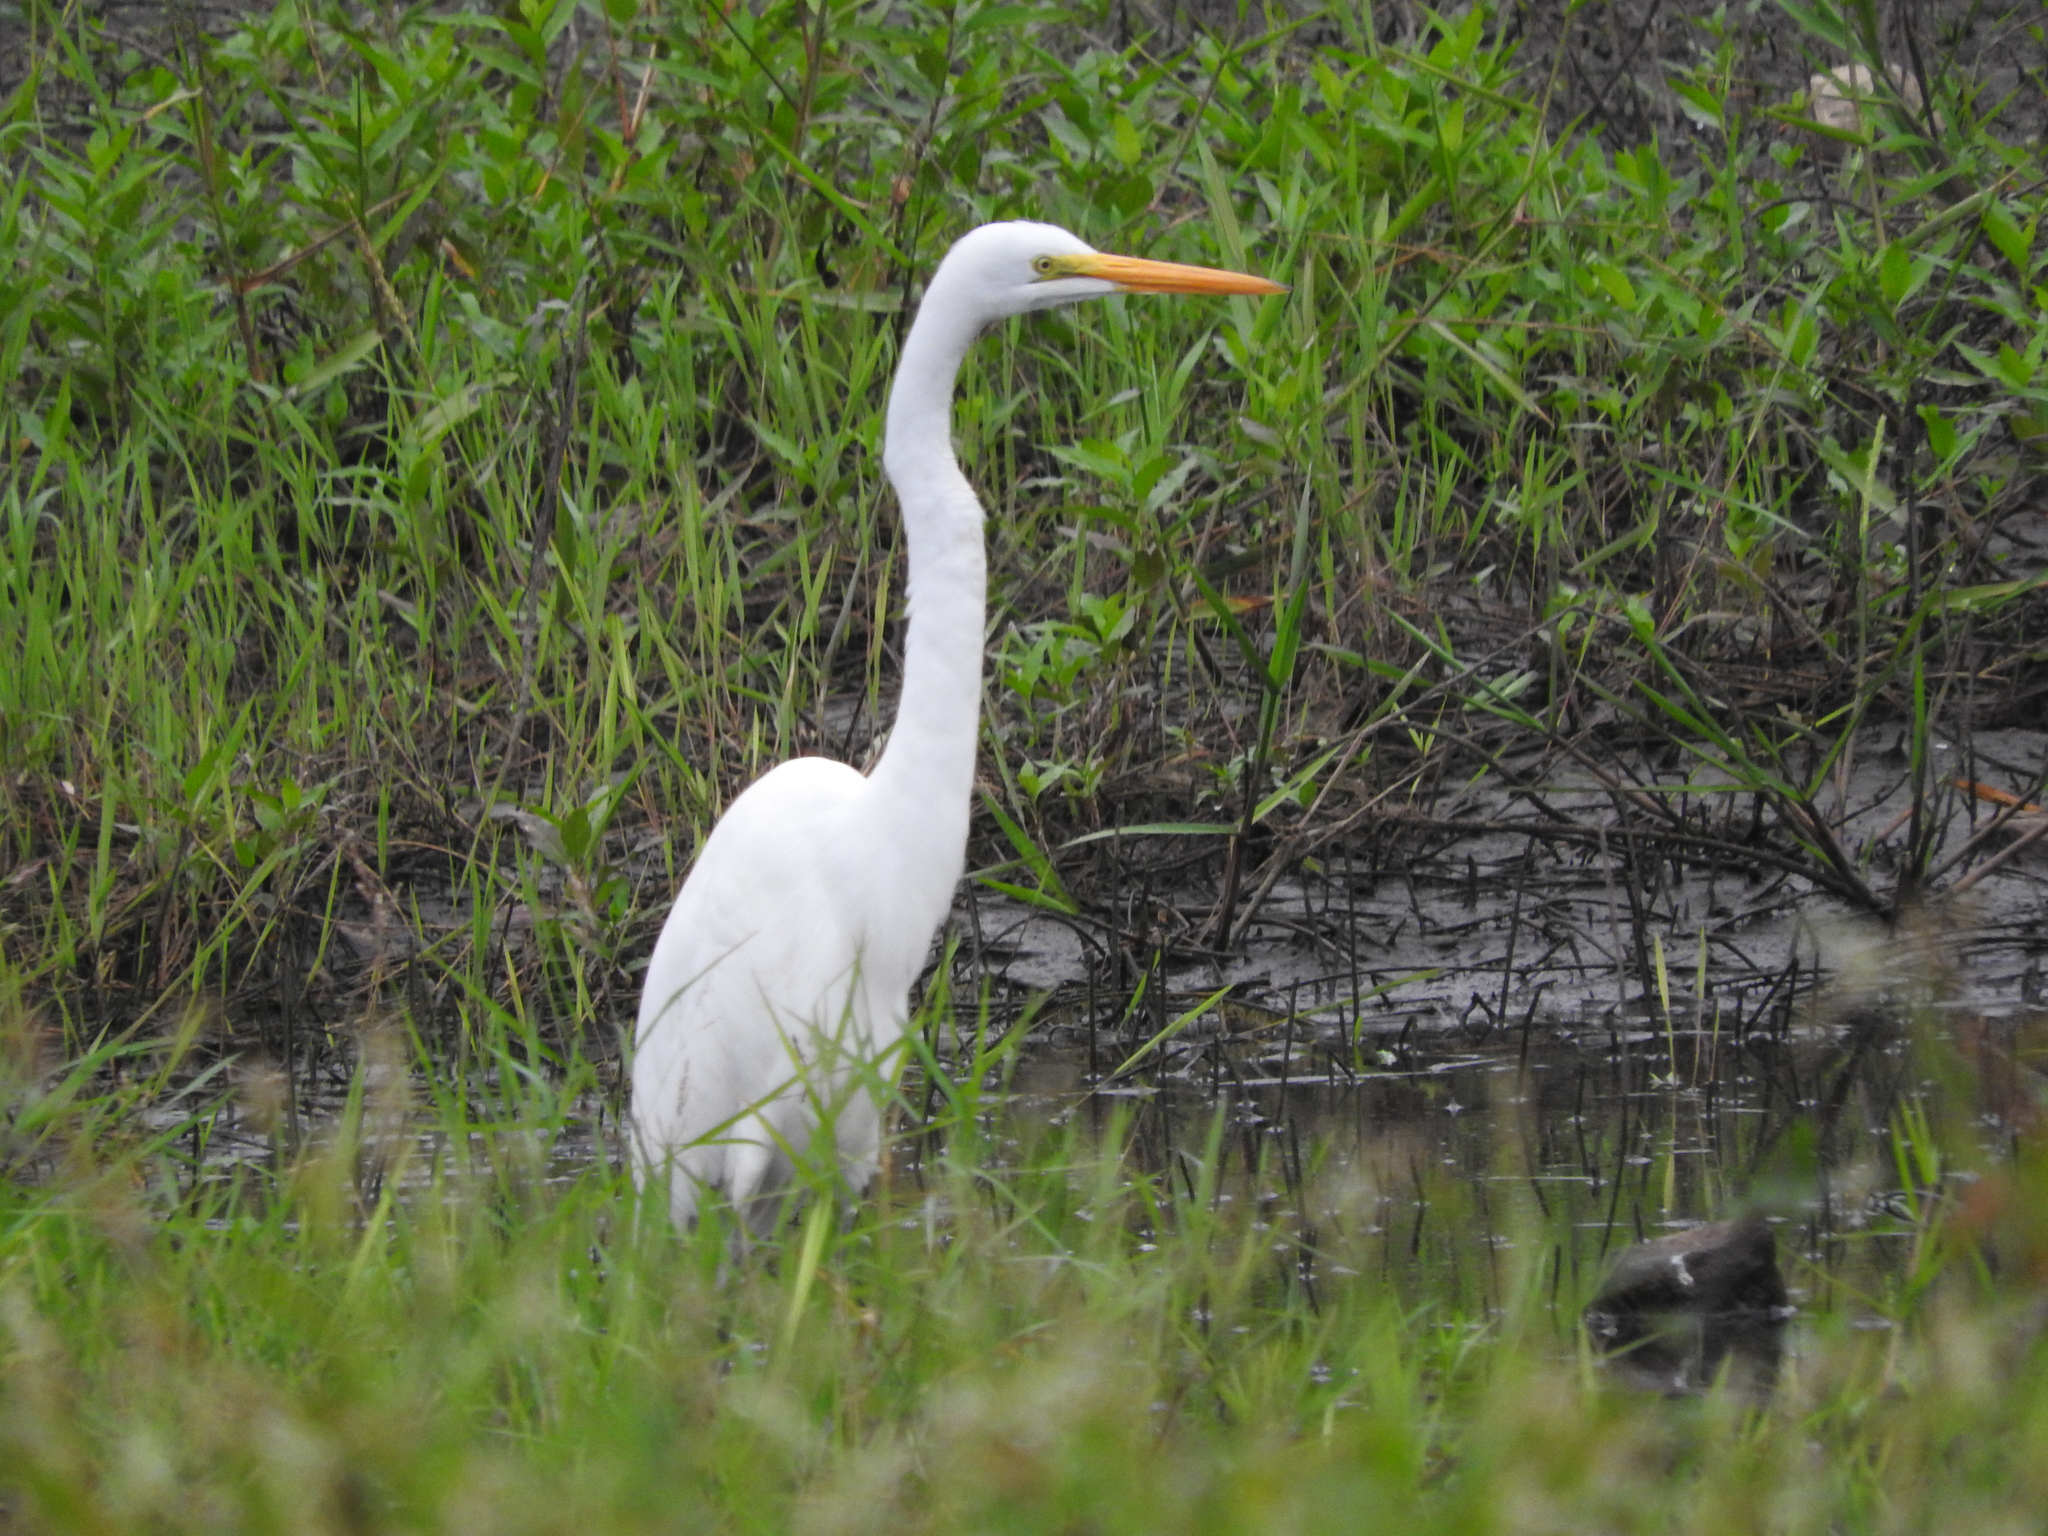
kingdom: Animalia
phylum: Chordata
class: Aves
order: Pelecaniformes
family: Ardeidae
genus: Ardea
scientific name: Ardea alba
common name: Great egret
